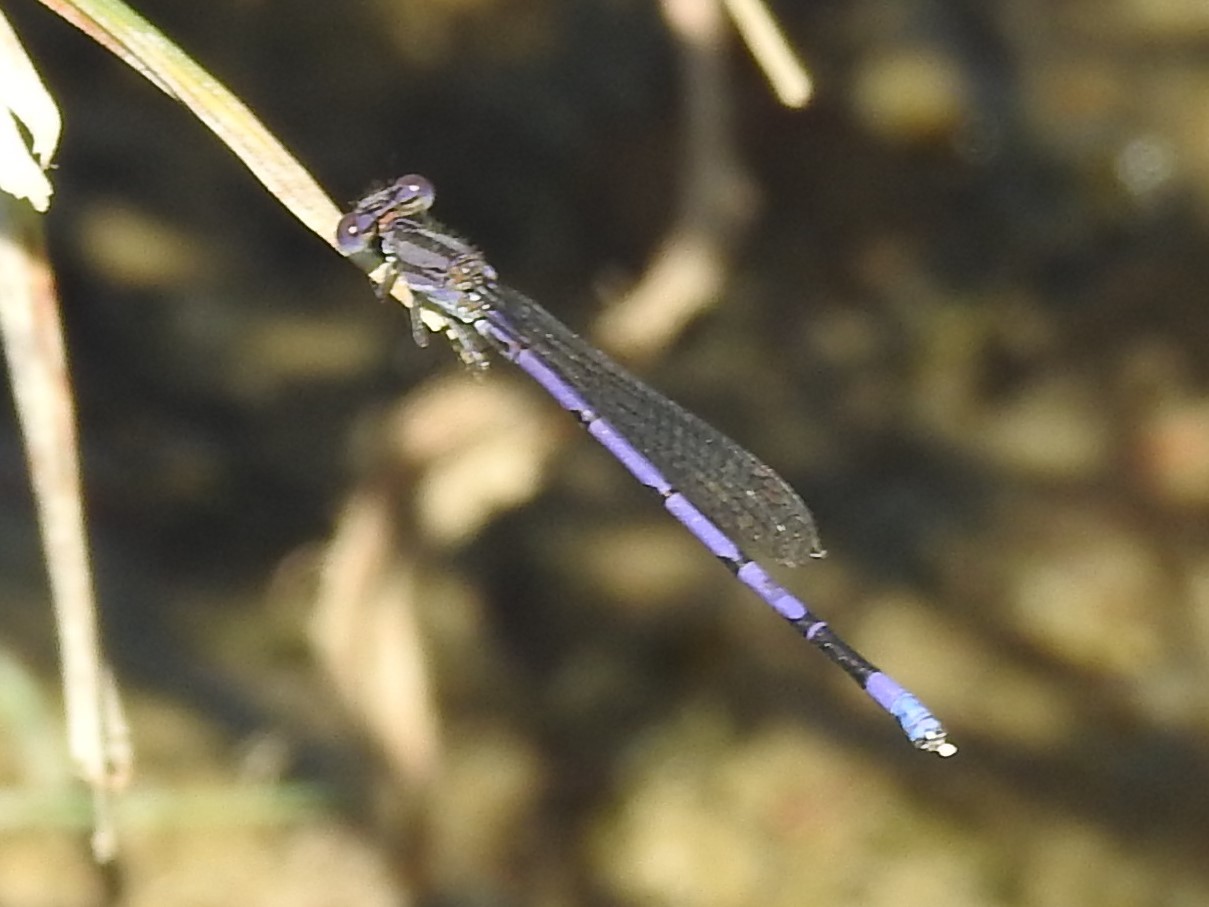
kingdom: Animalia
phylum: Arthropoda
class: Insecta
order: Odonata
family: Coenagrionidae
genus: Argia
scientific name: Argia fumipennis
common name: Variable dancer
